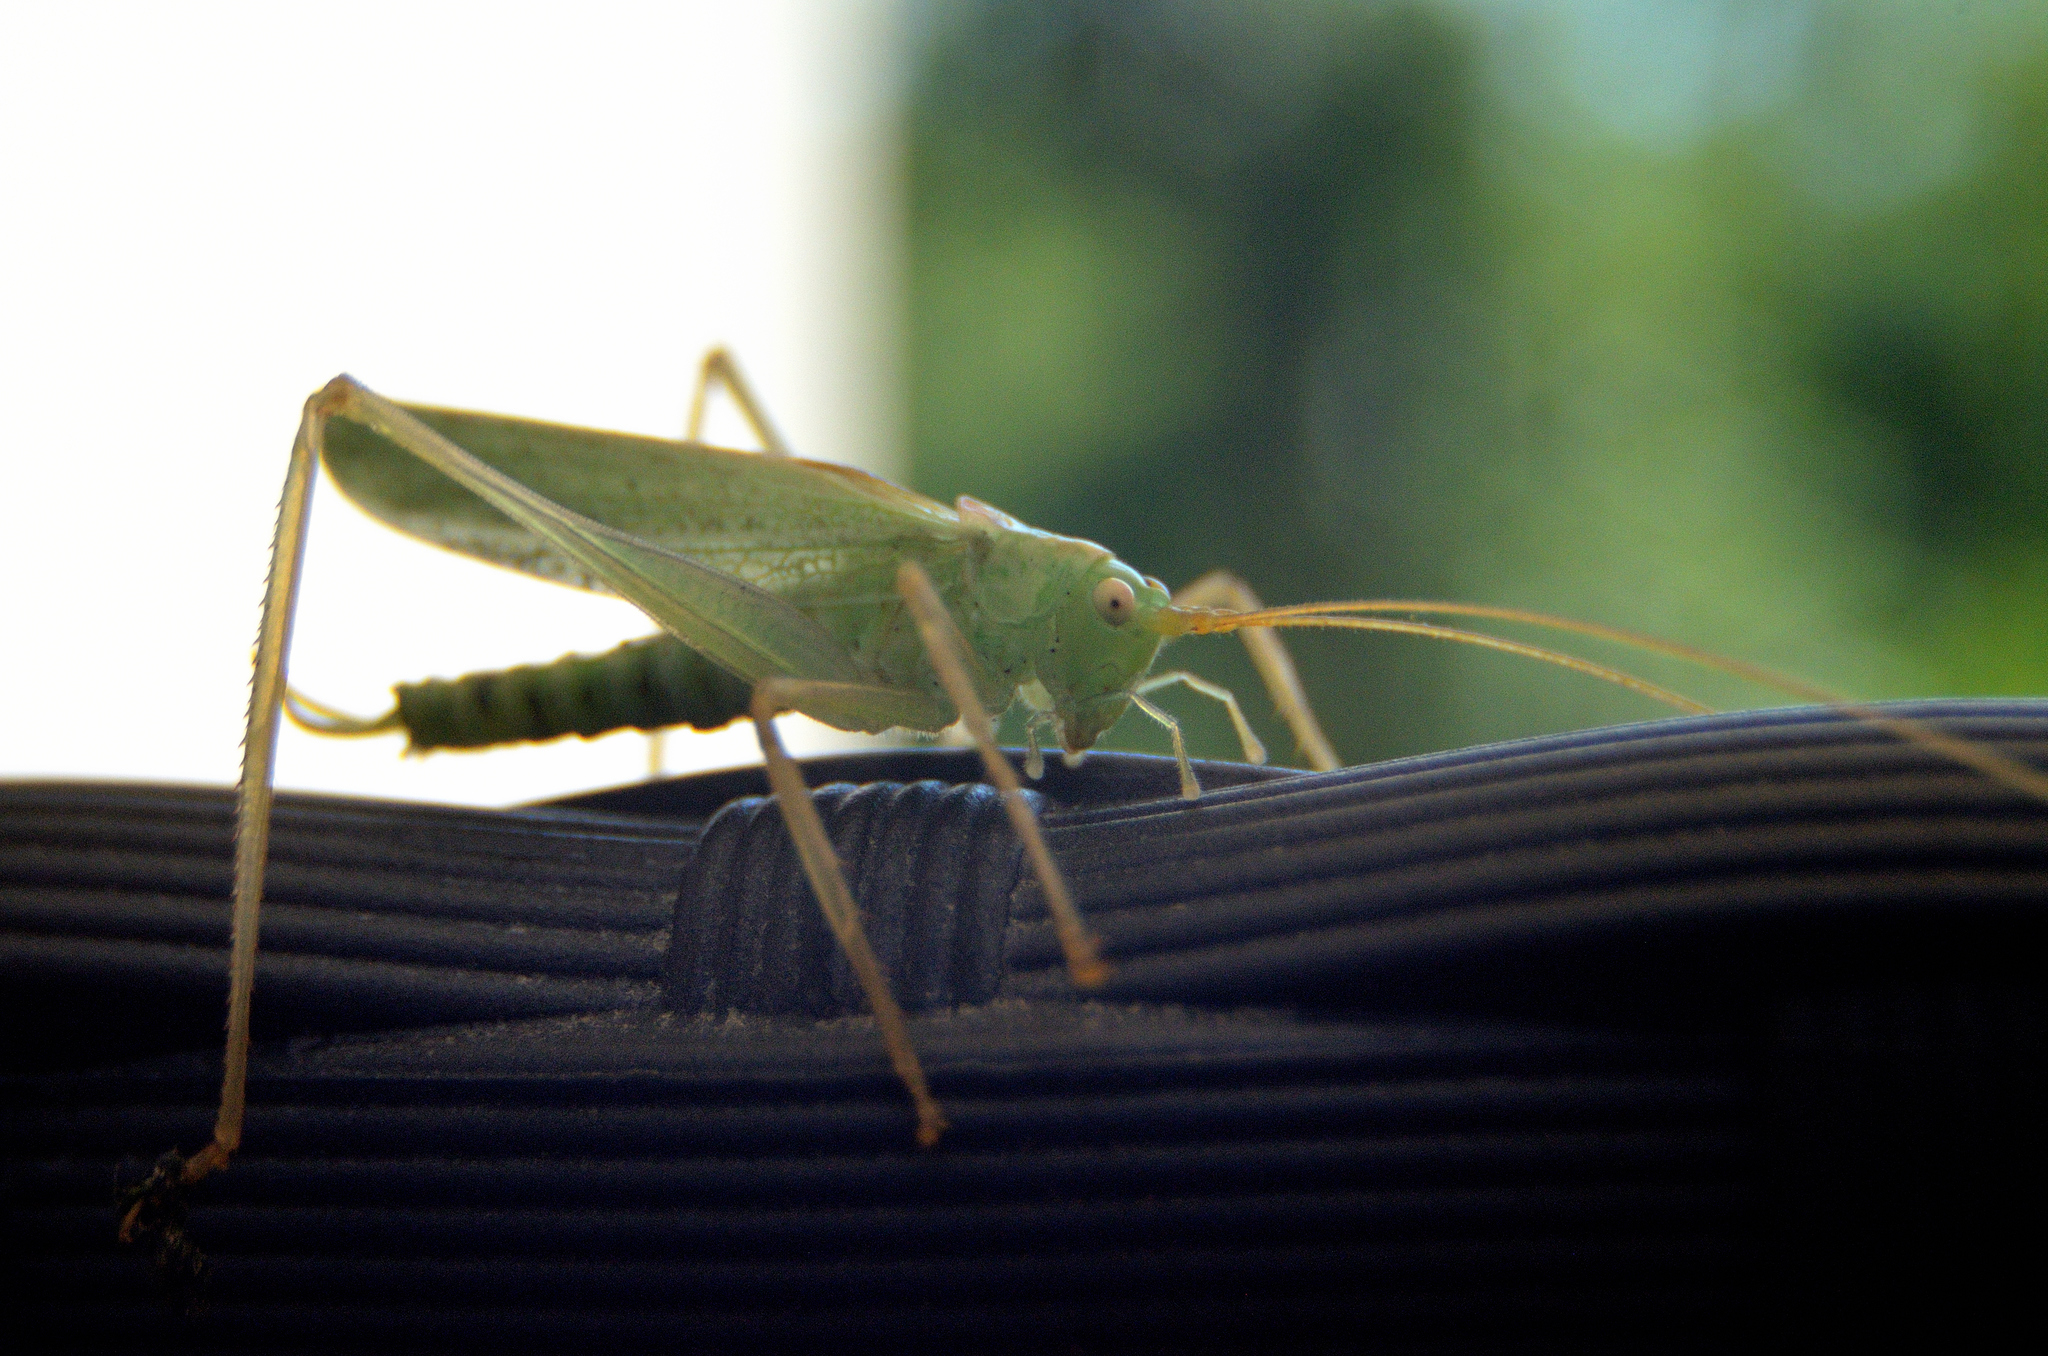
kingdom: Animalia
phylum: Arthropoda
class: Insecta
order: Orthoptera
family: Tettigoniidae
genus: Meconema
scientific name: Meconema thalassinum
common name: Oak bush-cricket
